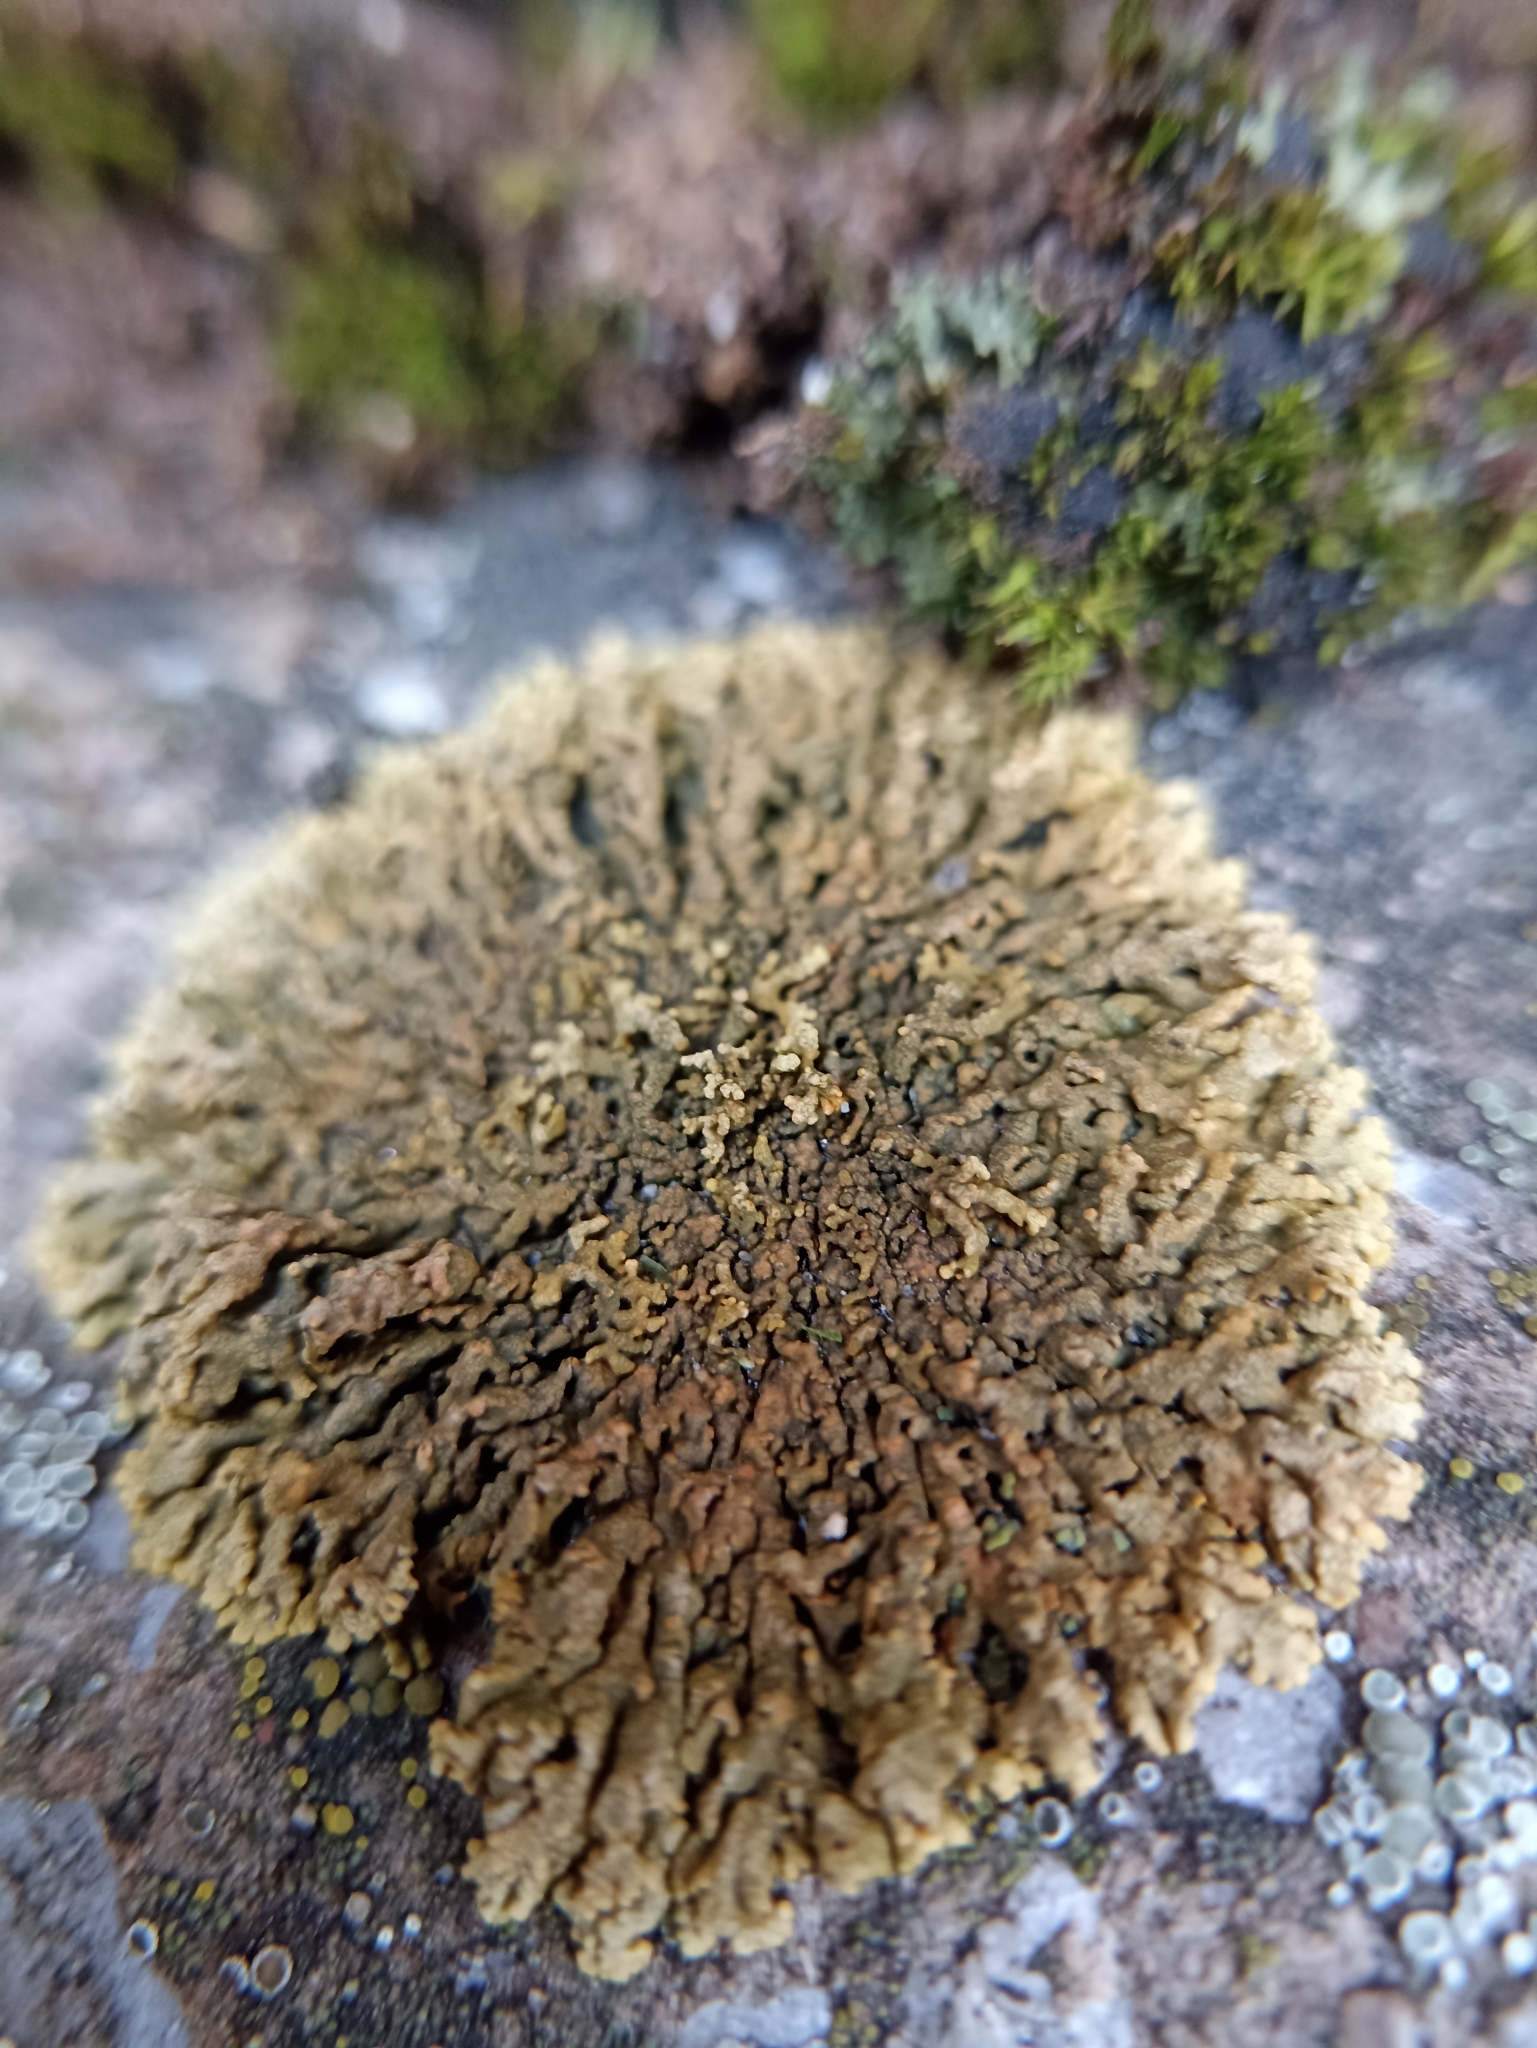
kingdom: Fungi
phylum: Ascomycota
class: Lecanoromycetes
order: Lecanorales
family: Parmeliaceae
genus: Xanthoparmelia
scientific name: Xanthoparmelia pulla
